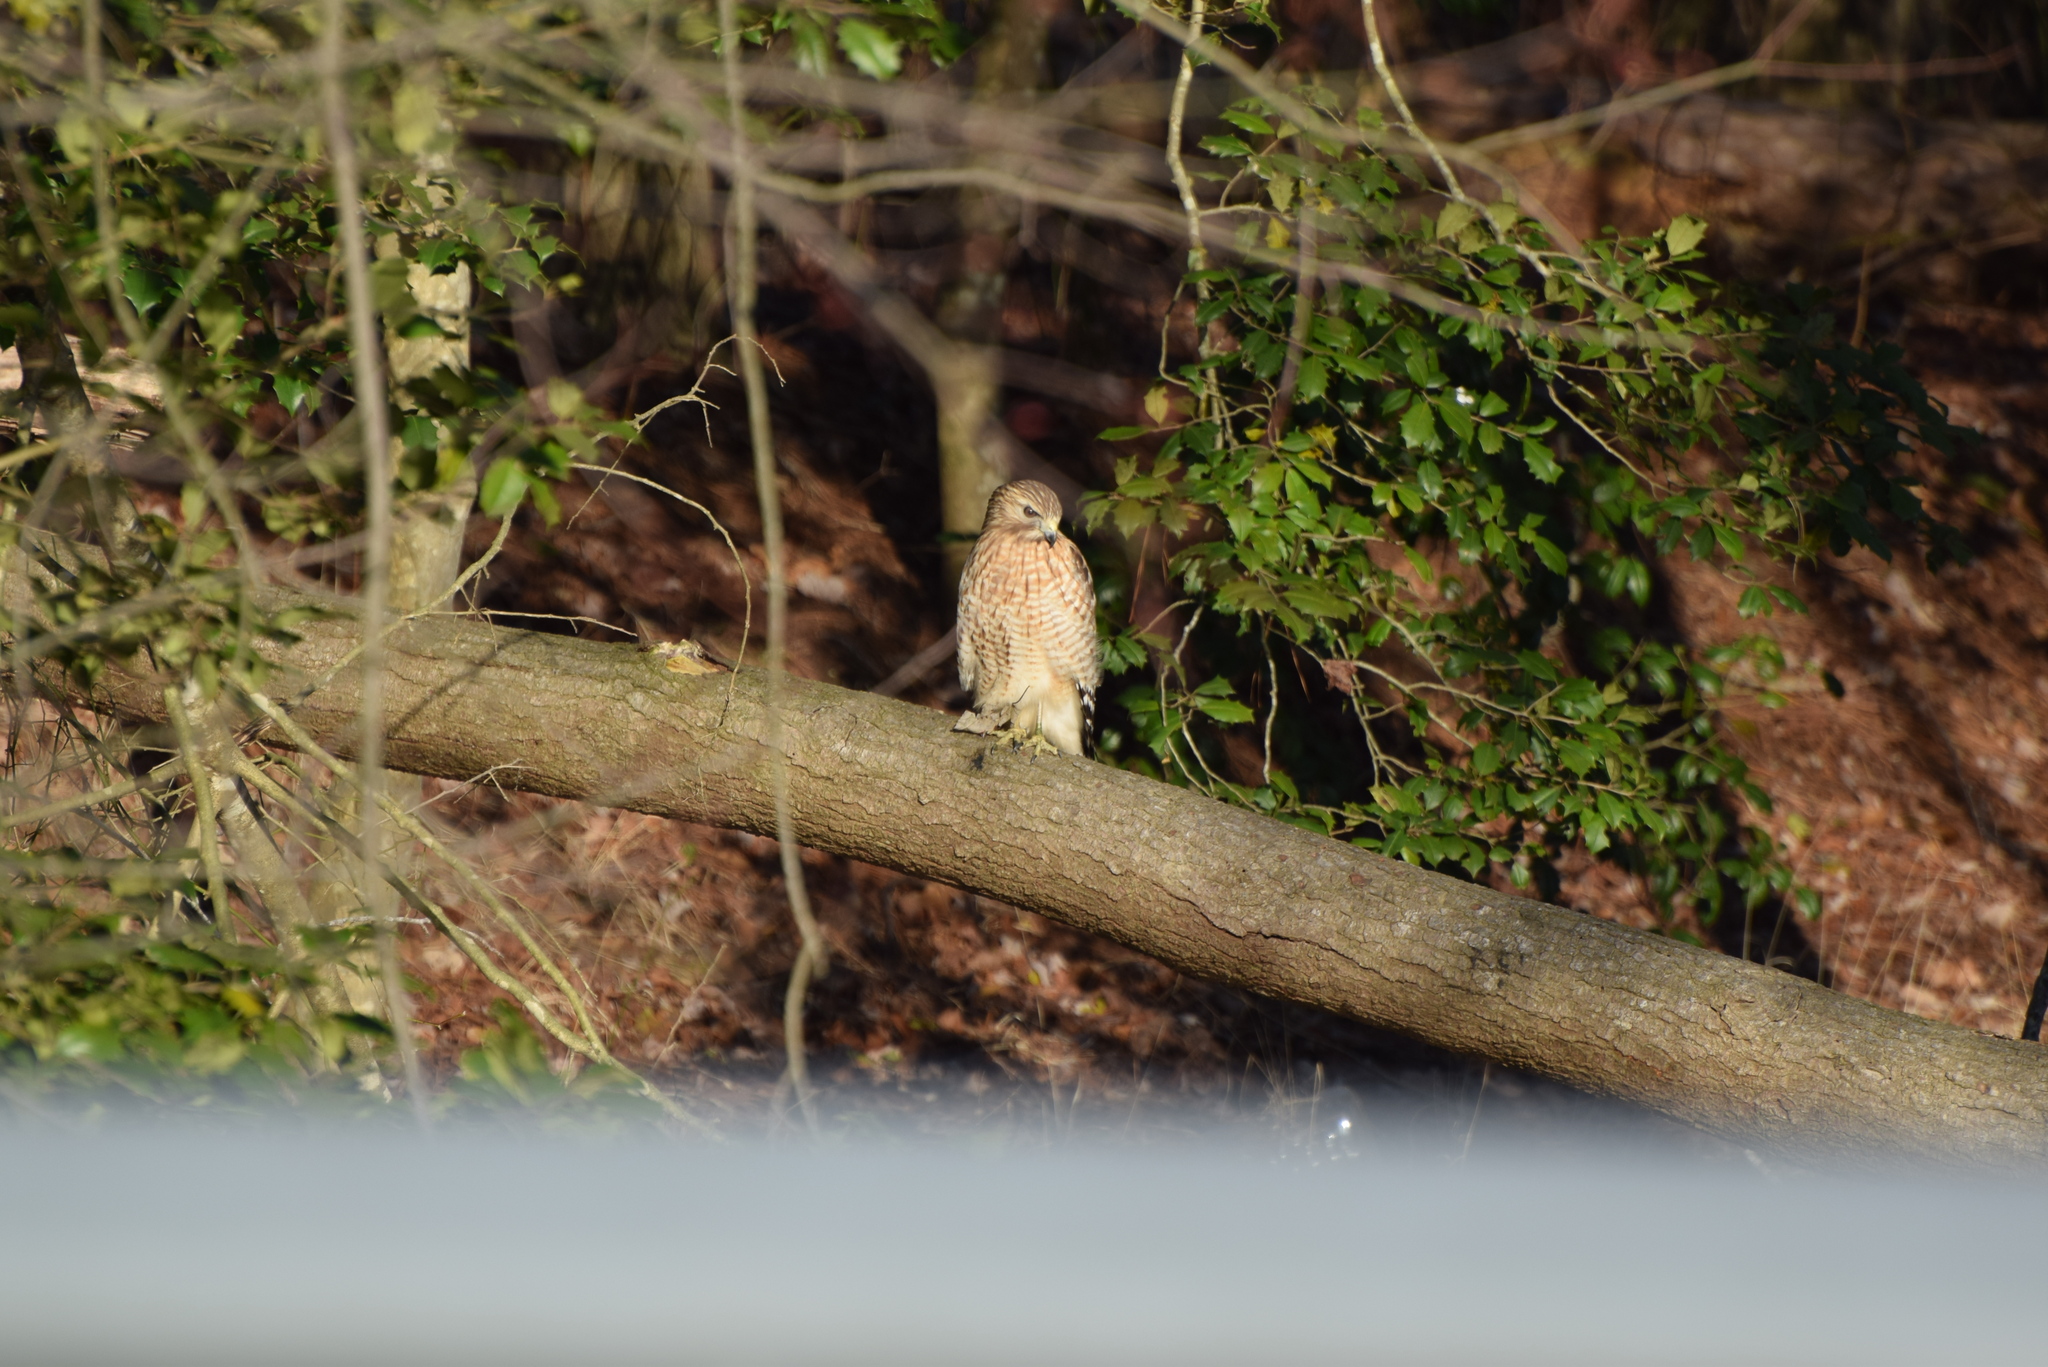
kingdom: Animalia
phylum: Chordata
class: Aves
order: Accipitriformes
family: Accipitridae
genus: Buteo
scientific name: Buteo lineatus
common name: Red-shouldered hawk
